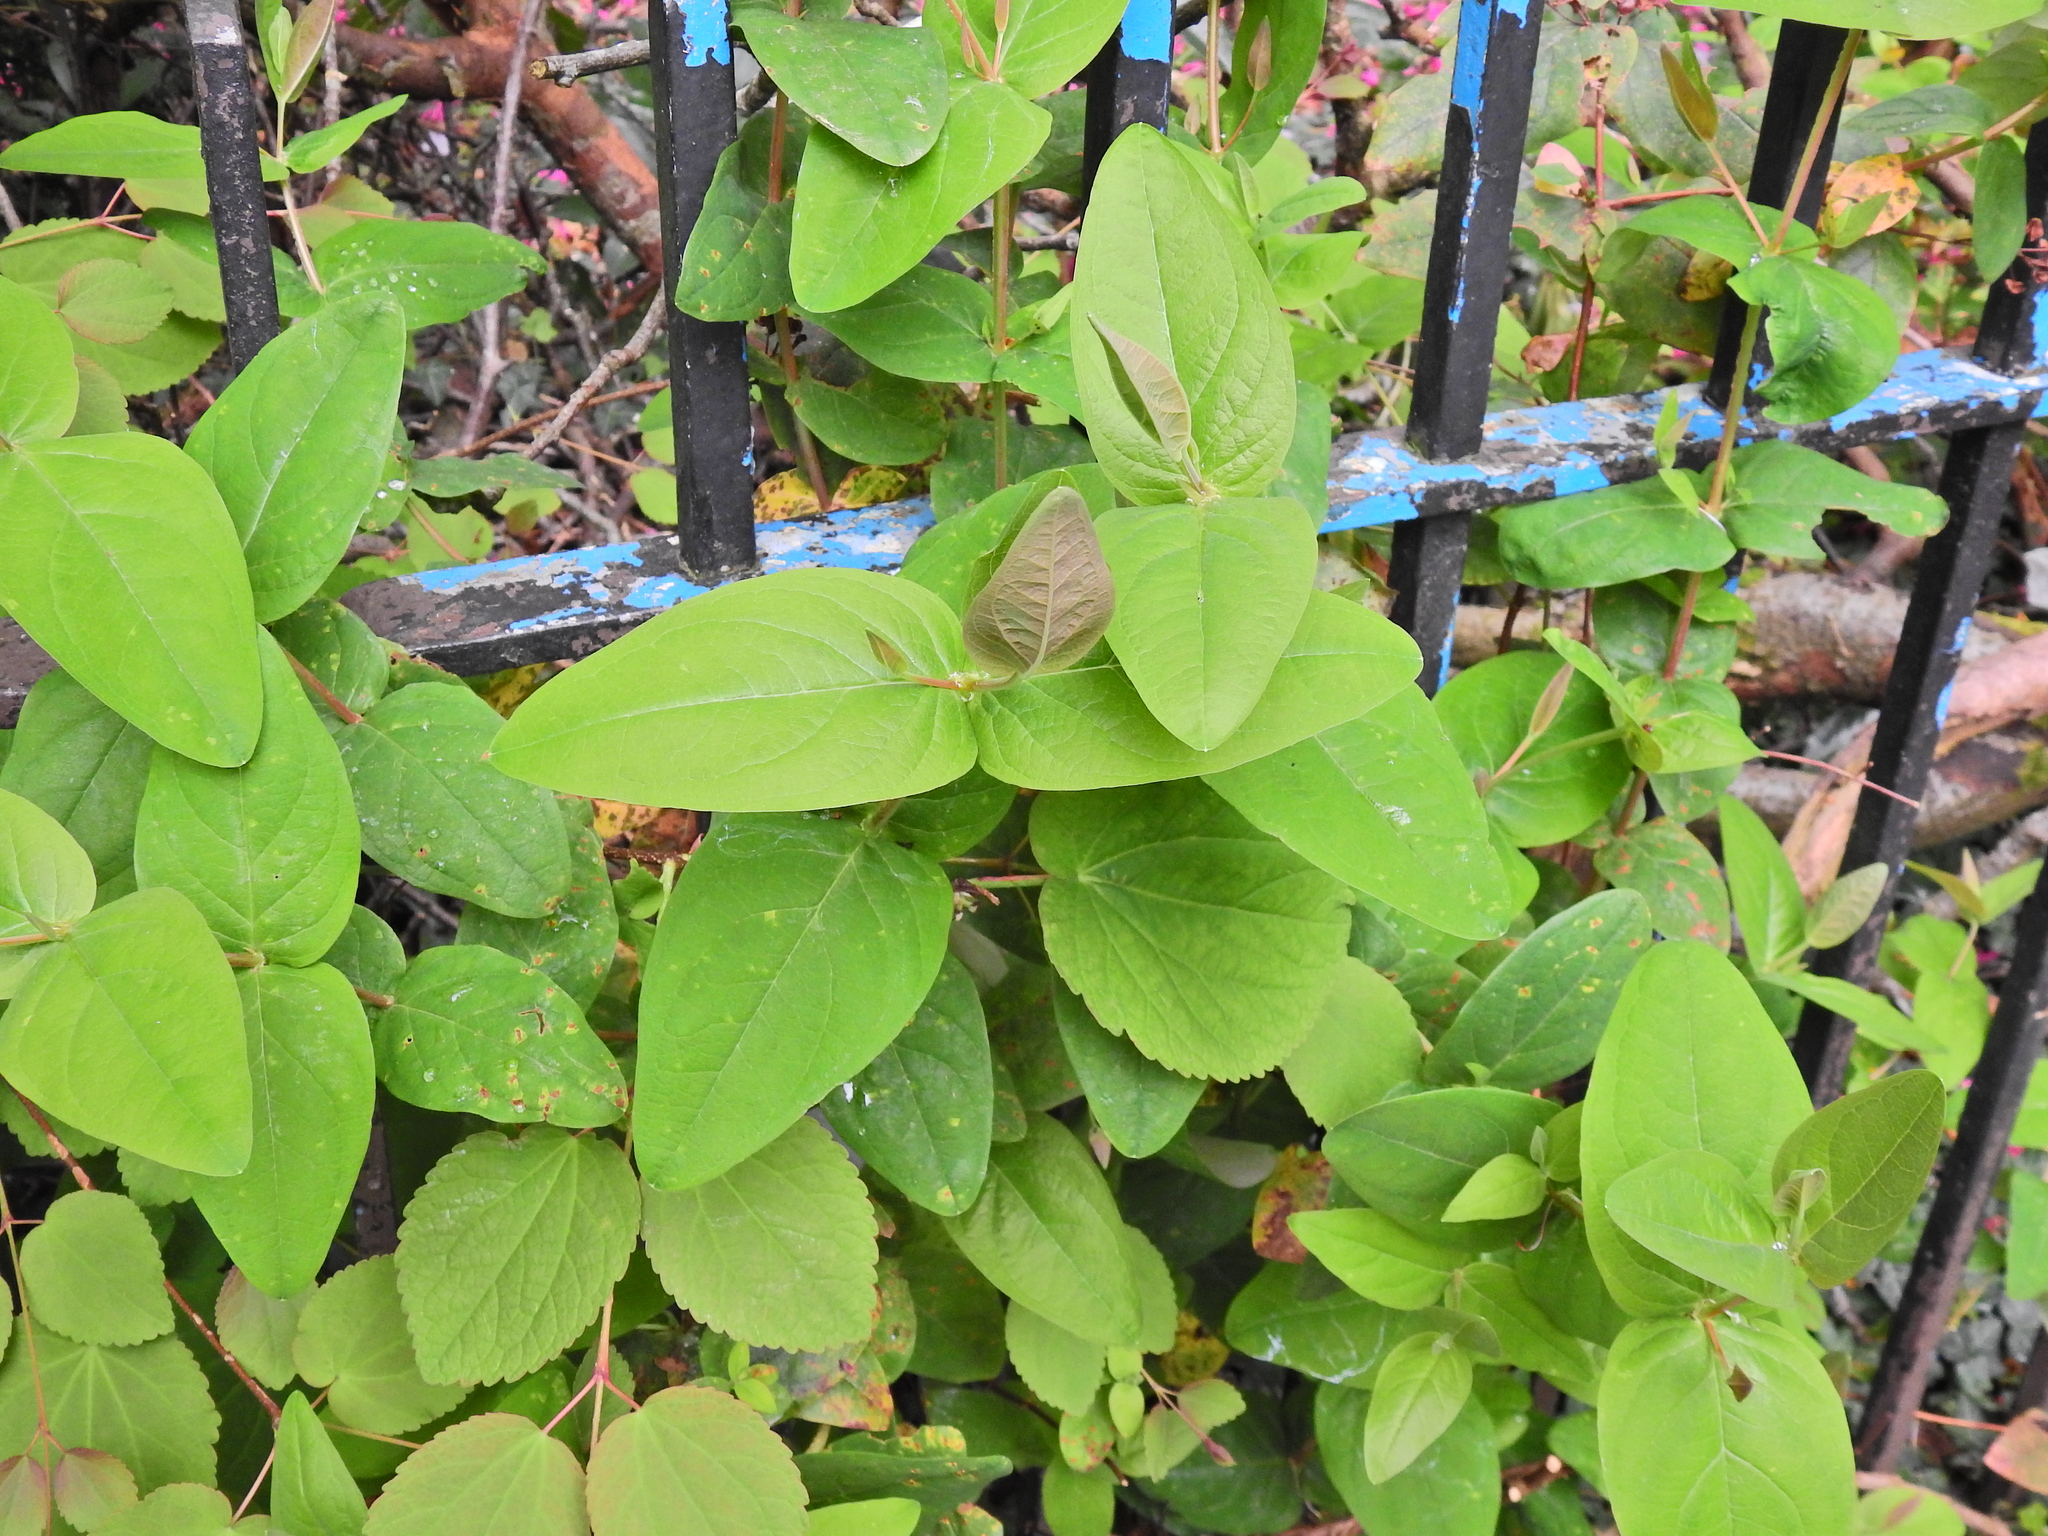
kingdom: Plantae
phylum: Tracheophyta
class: Magnoliopsida
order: Malpighiales
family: Hypericaceae
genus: Hypericum
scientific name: Hypericum androsaemum
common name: Sweet-amber
